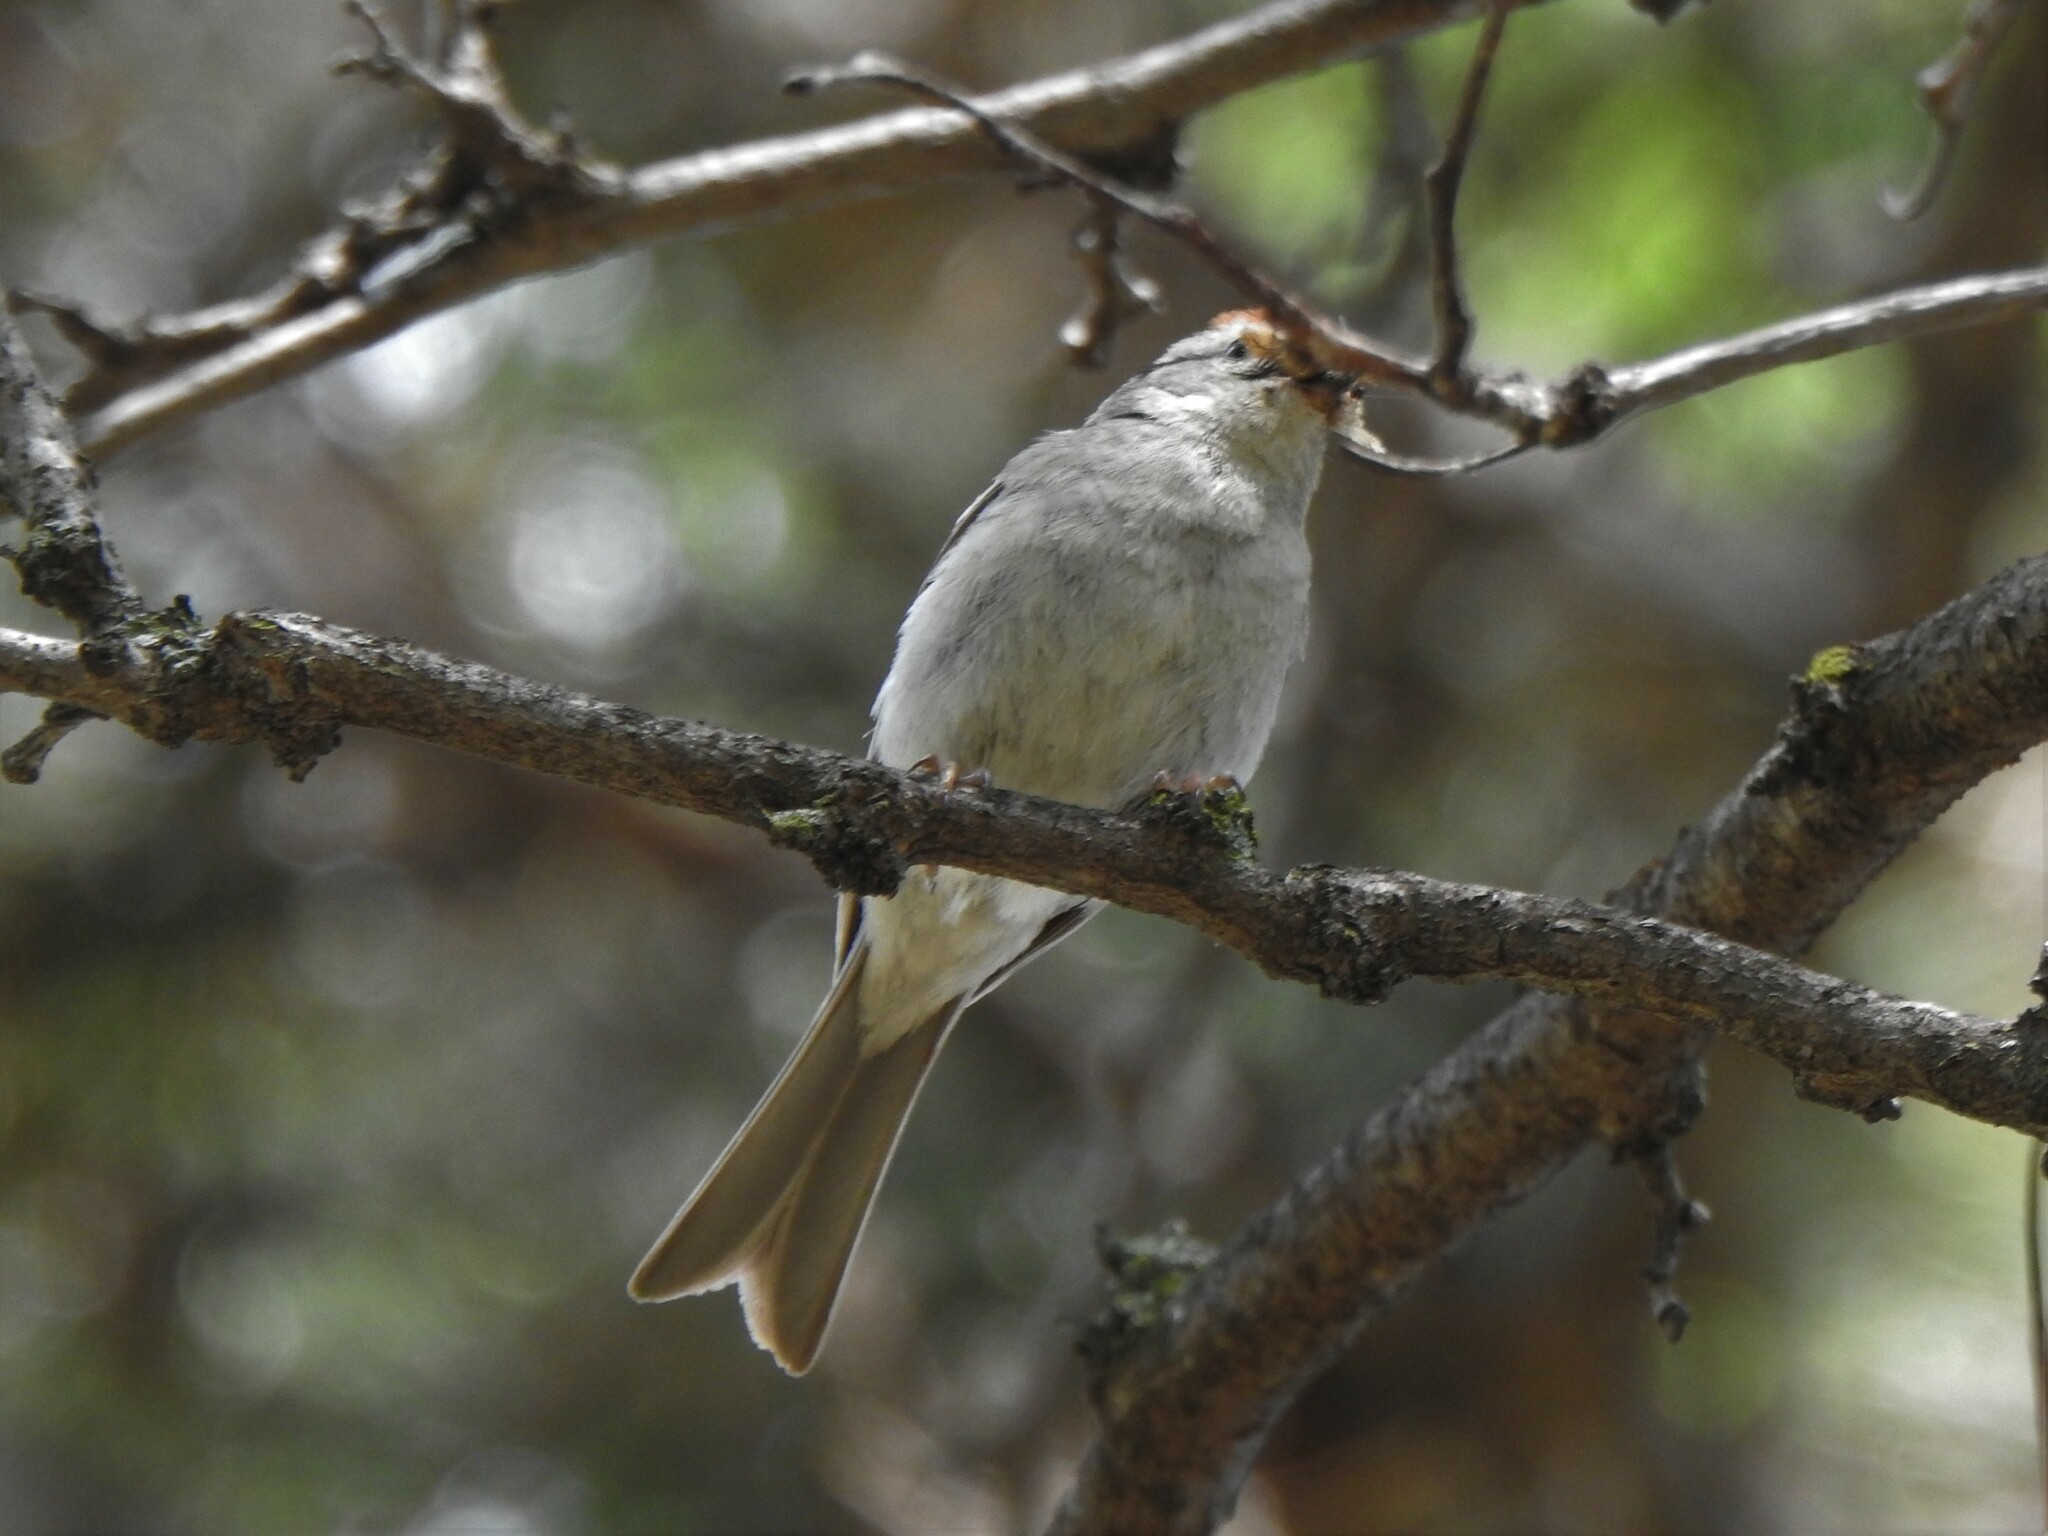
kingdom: Animalia
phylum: Chordata
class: Aves
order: Passeriformes
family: Passerellidae
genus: Spizella
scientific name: Spizella passerina
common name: Chipping sparrow
